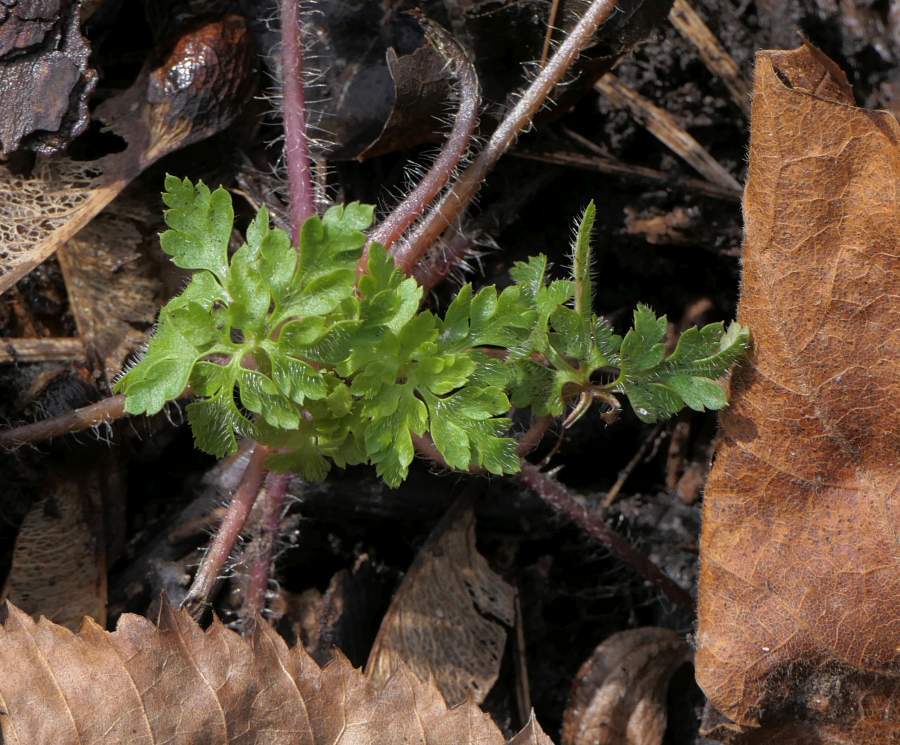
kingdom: Plantae
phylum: Tracheophyta
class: Magnoliopsida
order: Geraniales
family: Geraniaceae
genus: Geranium
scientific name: Geranium robertianum
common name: Herb-robert
